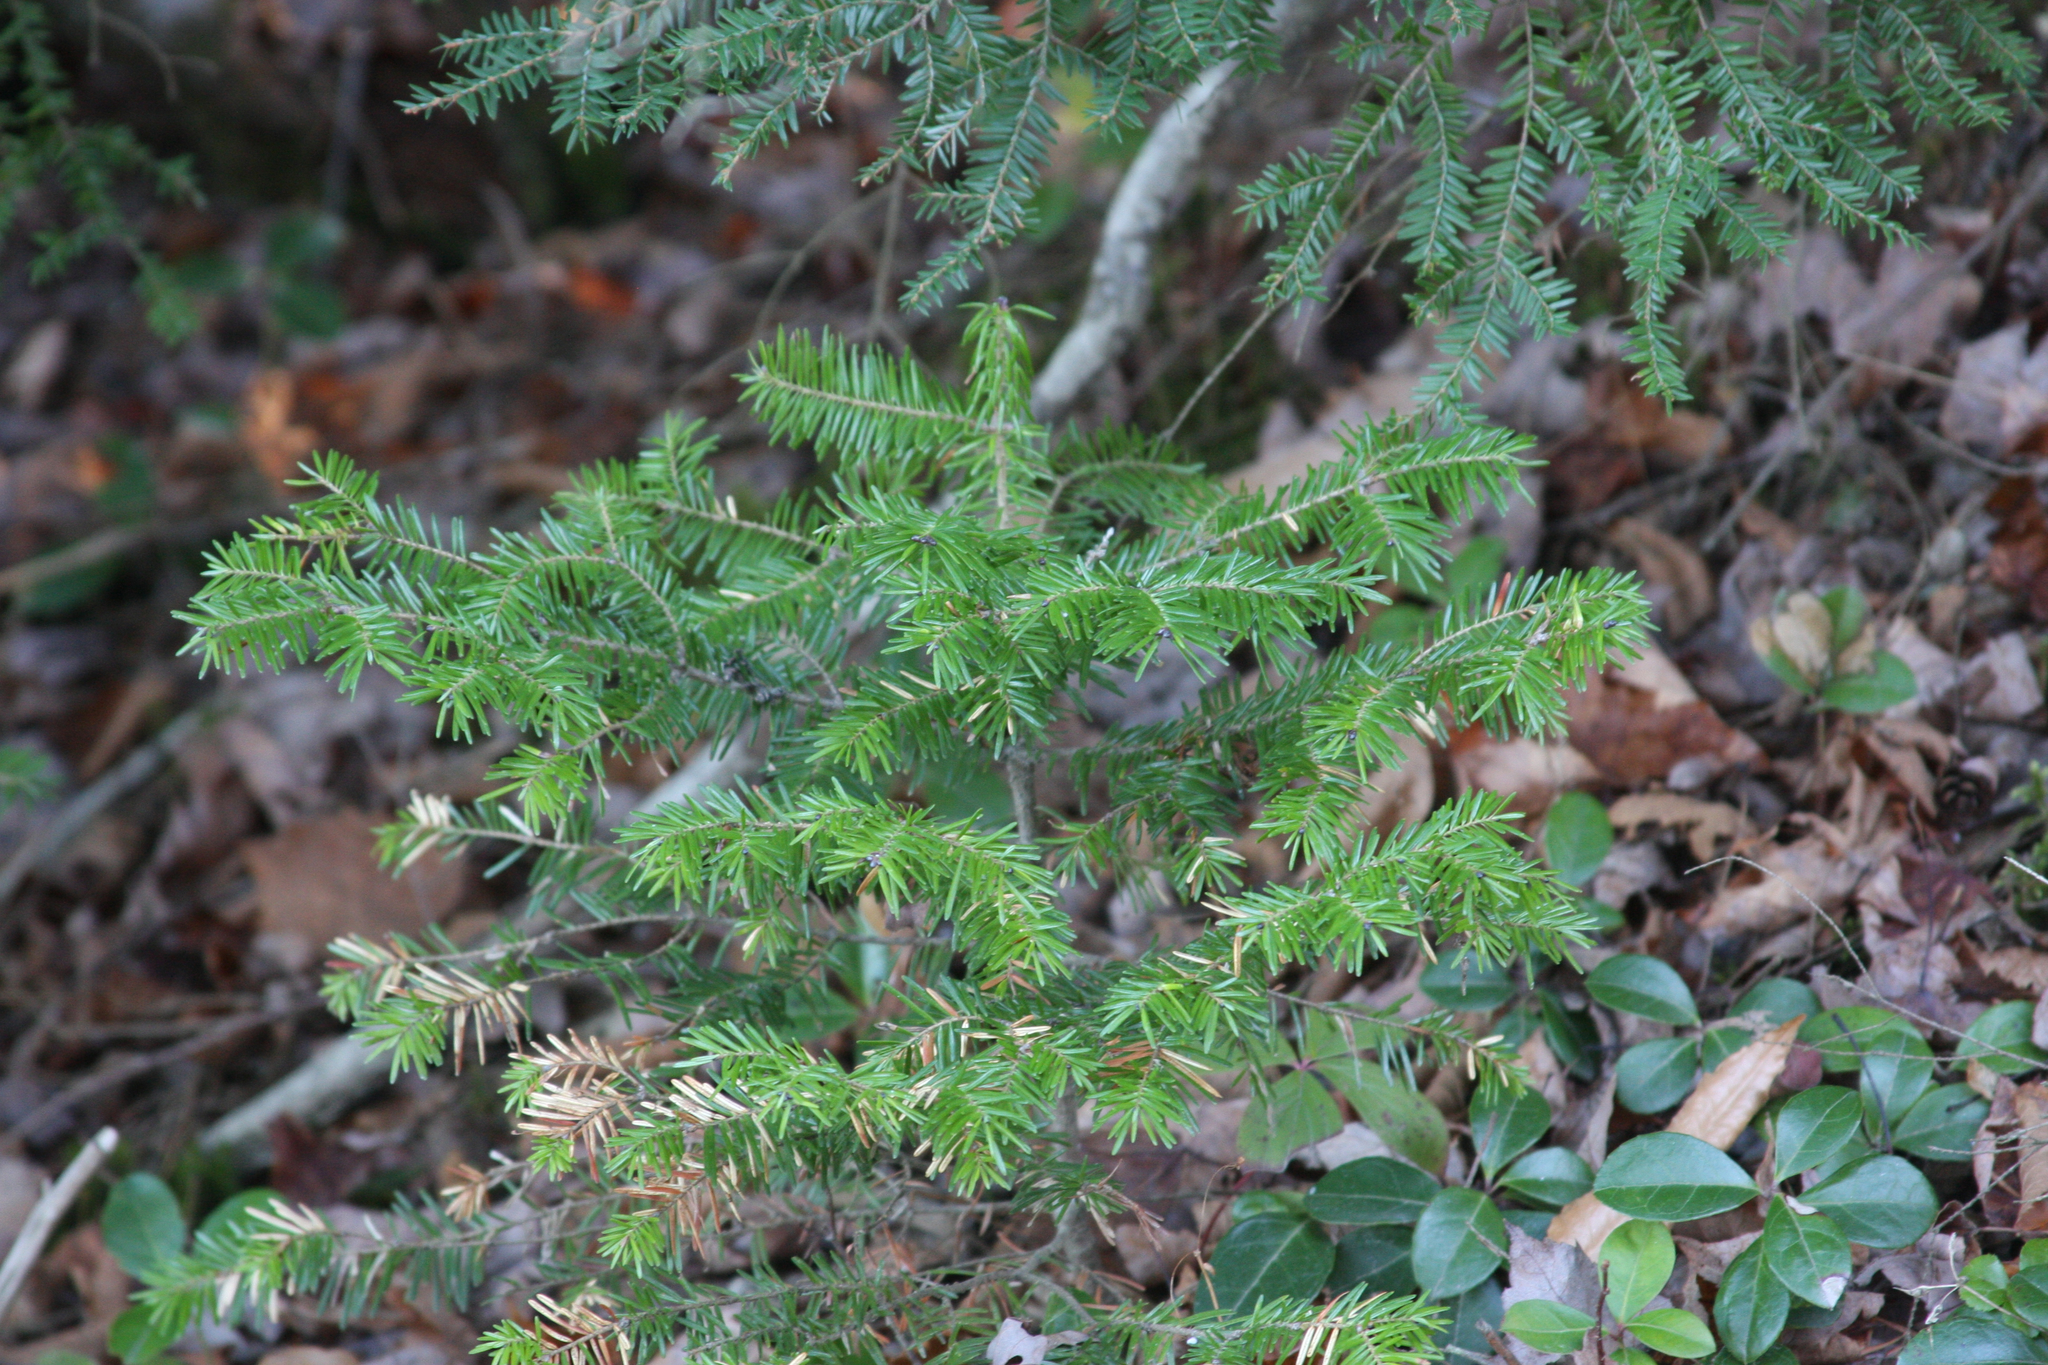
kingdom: Plantae
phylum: Tracheophyta
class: Pinopsida
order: Pinales
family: Pinaceae
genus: Abies
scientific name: Abies balsamea
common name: Balsam fir
